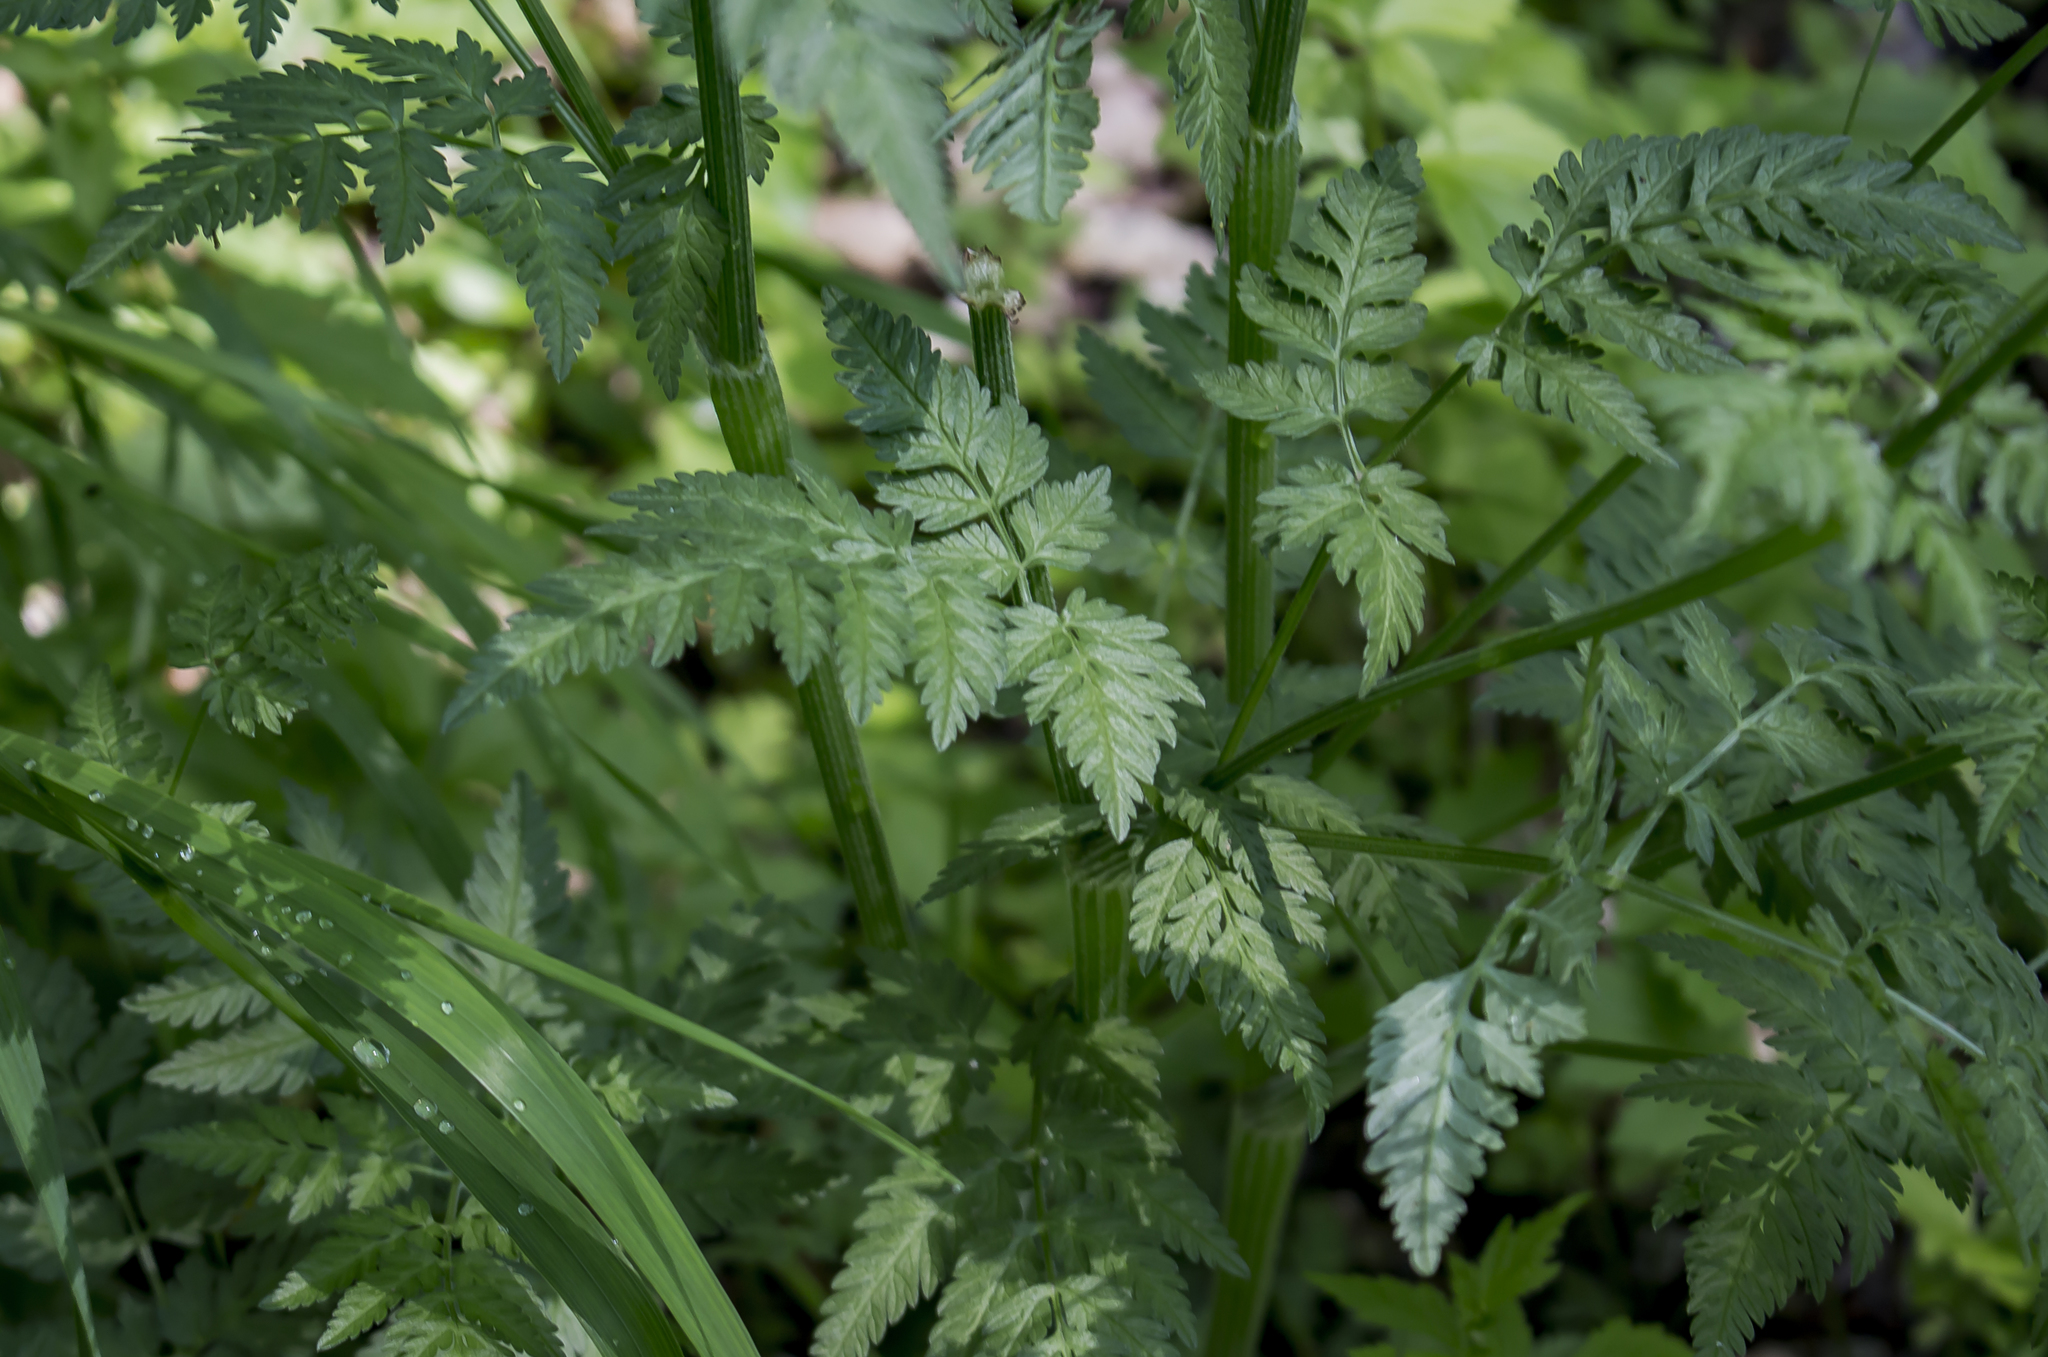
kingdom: Plantae
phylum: Tracheophyta
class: Magnoliopsida
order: Apiales
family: Apiaceae
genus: Torilis
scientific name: Torilis japonica
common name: Upright hedge-parsley
